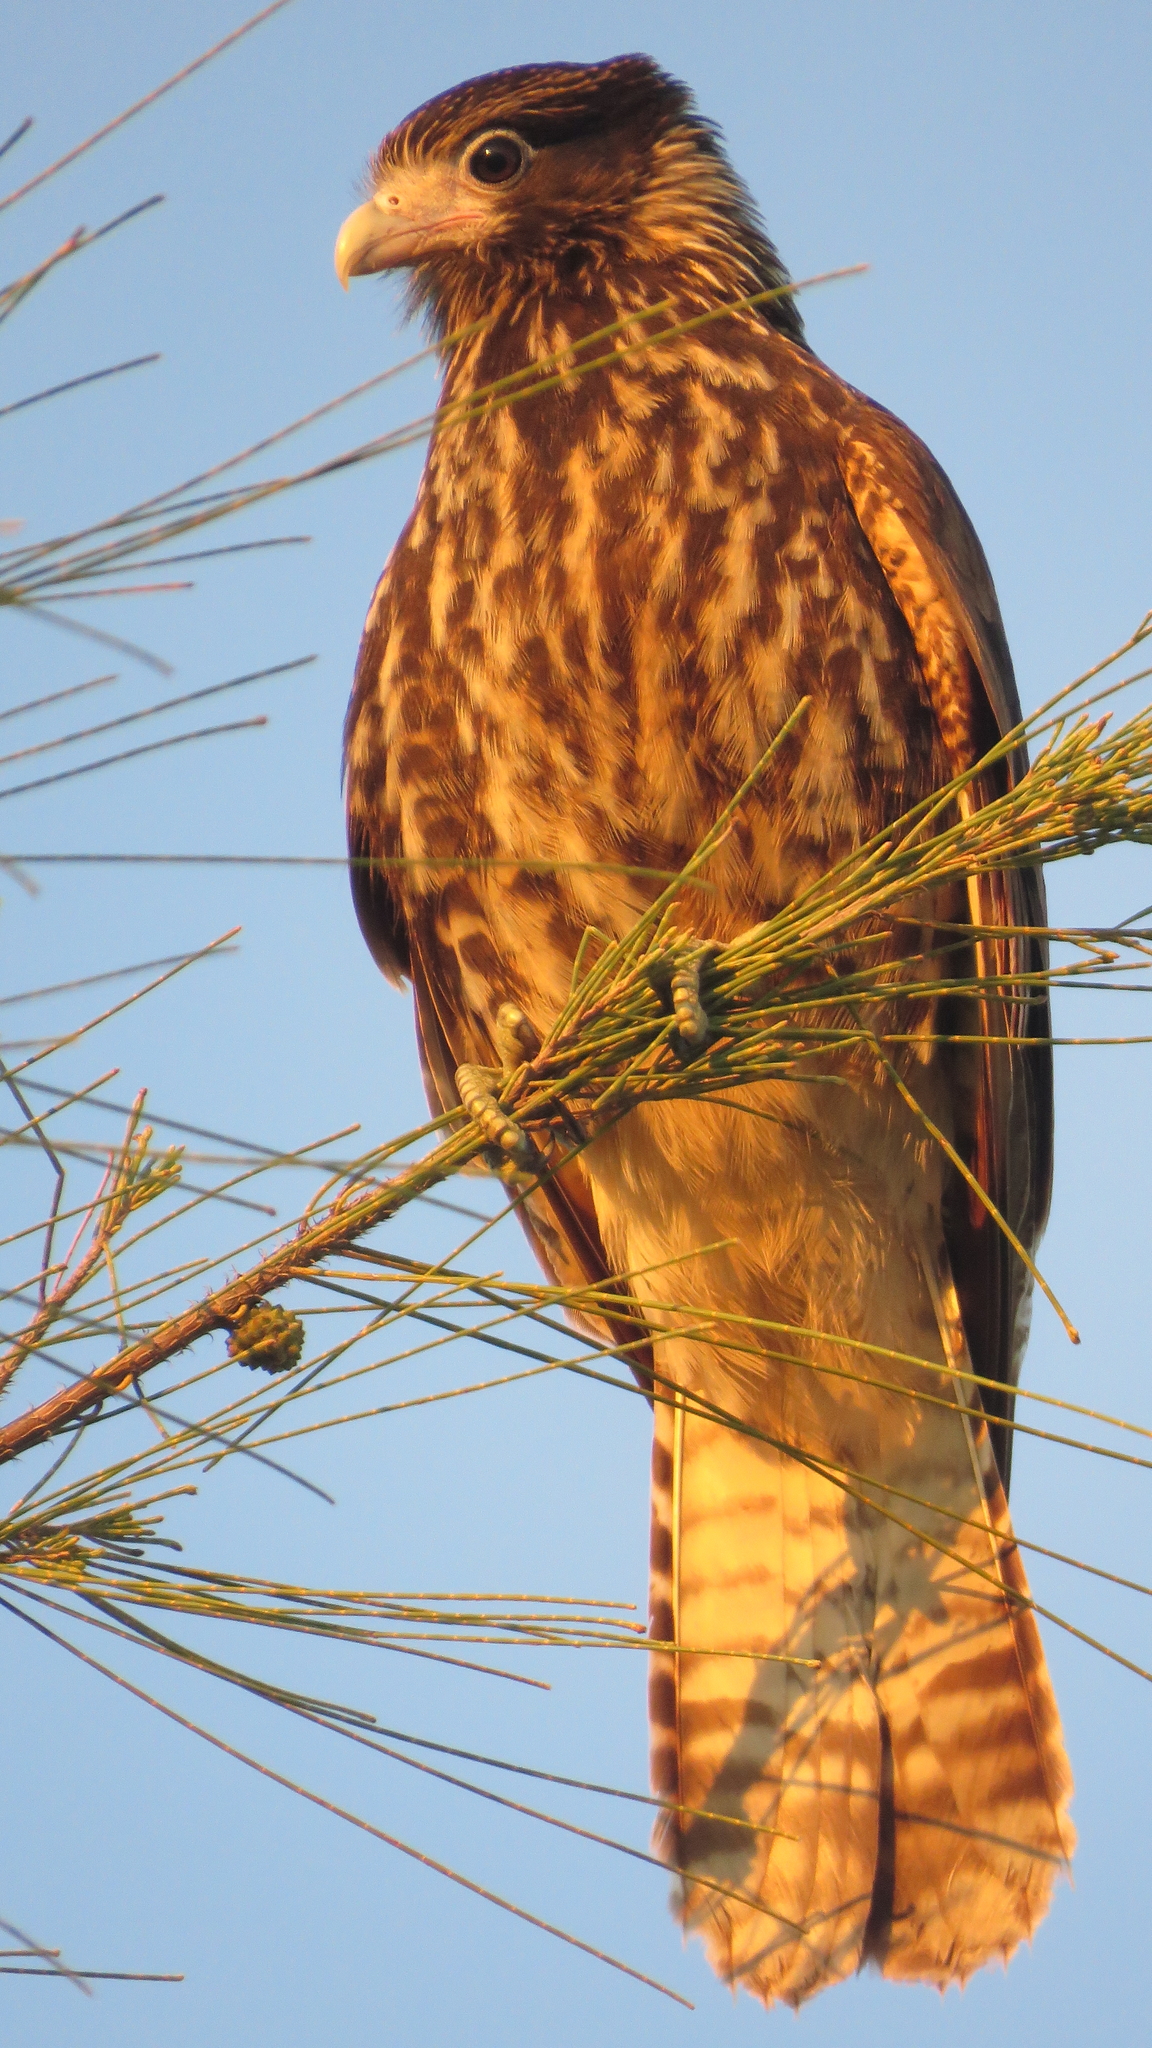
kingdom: Animalia
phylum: Chordata
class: Aves
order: Falconiformes
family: Falconidae
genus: Daptrius
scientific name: Daptrius
